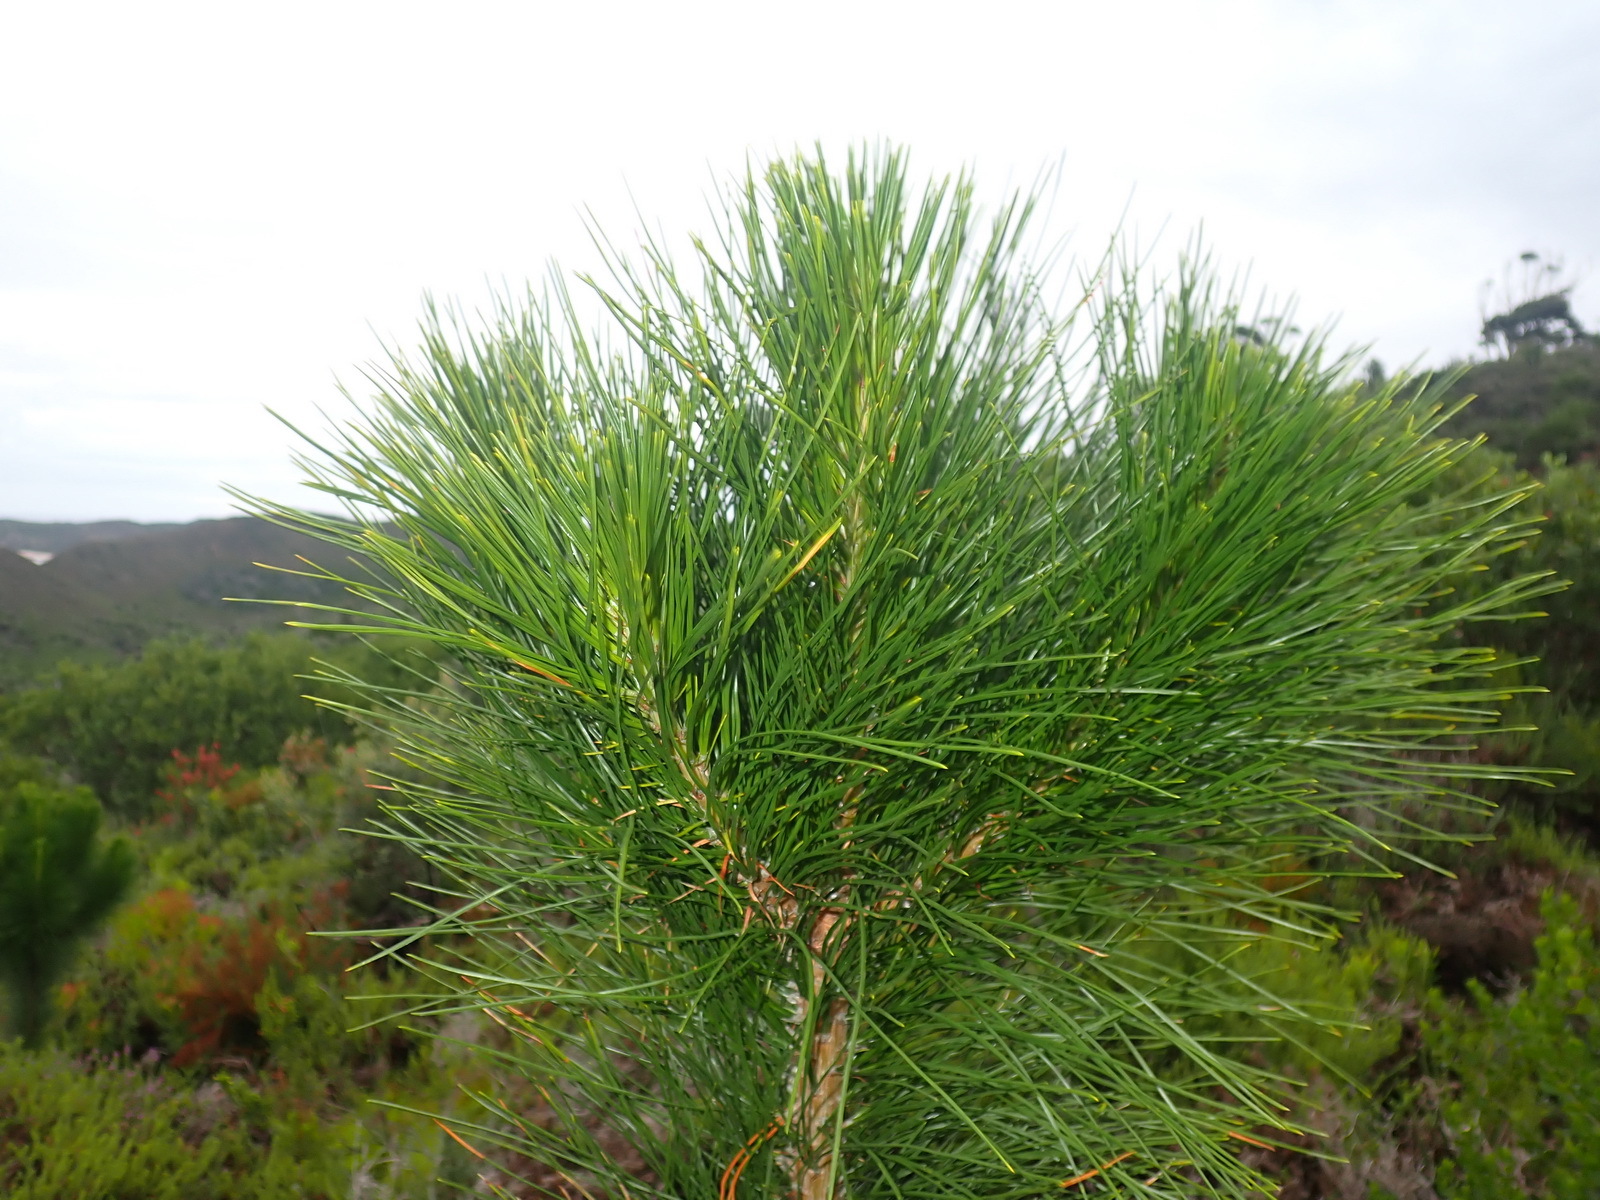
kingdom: Plantae
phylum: Tracheophyta
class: Pinopsida
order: Pinales
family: Pinaceae
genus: Pinus
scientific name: Pinus pinaster
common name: Maritime pine
